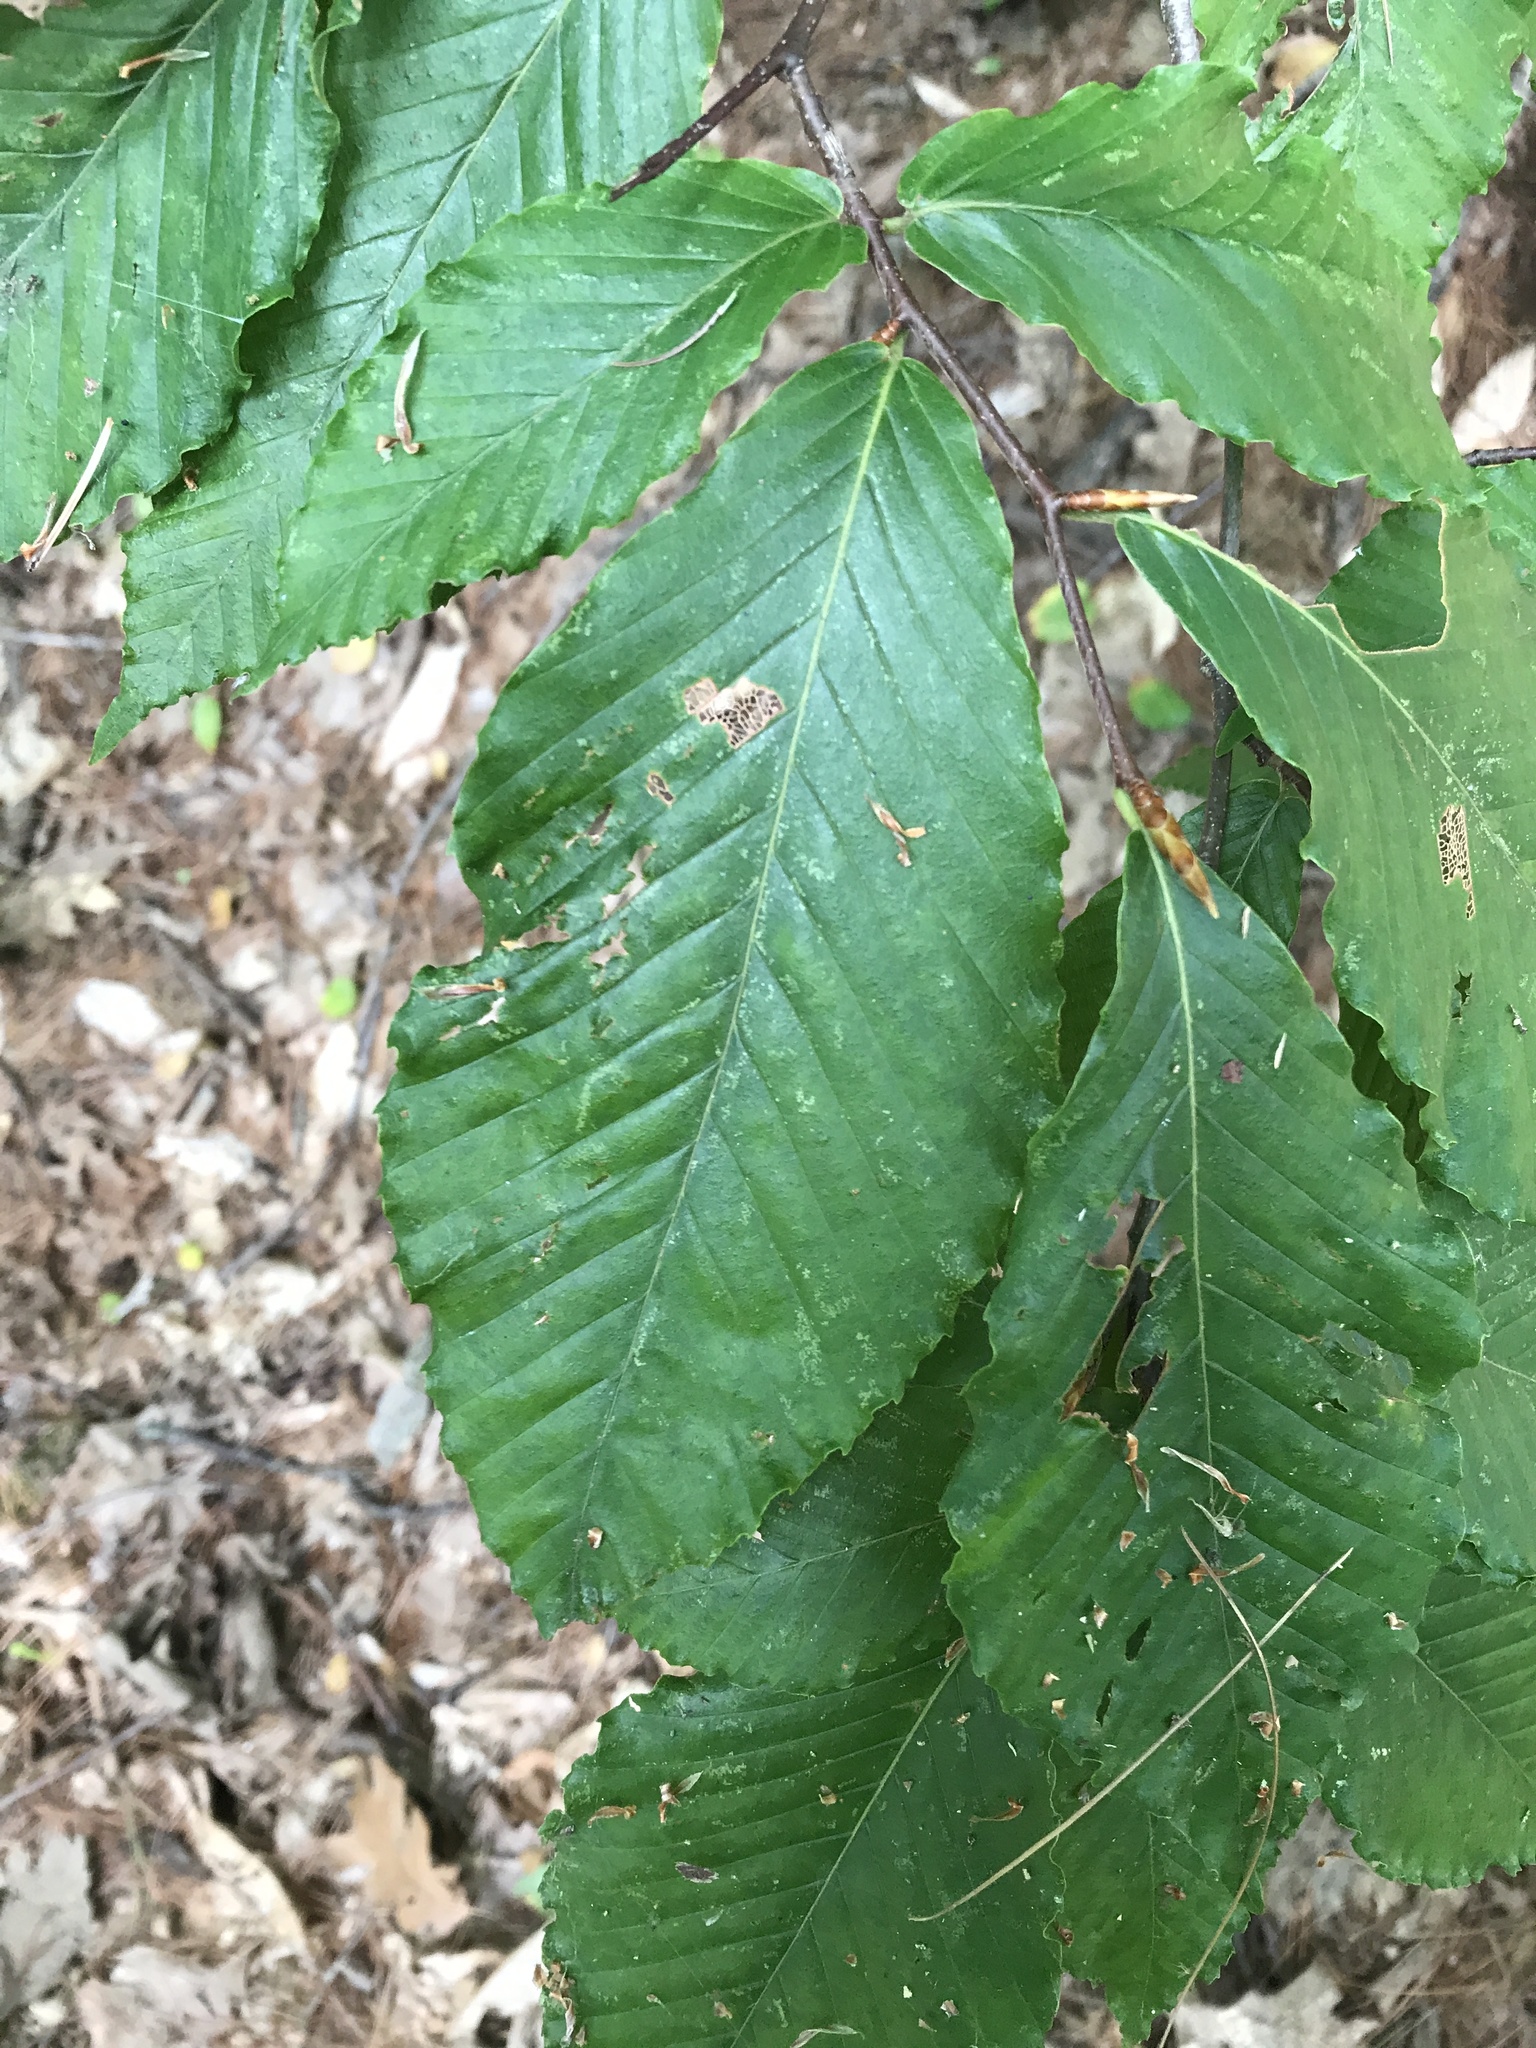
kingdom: Plantae
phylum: Tracheophyta
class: Magnoliopsida
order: Fagales
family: Fagaceae
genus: Fagus
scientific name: Fagus grandifolia
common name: American beech
